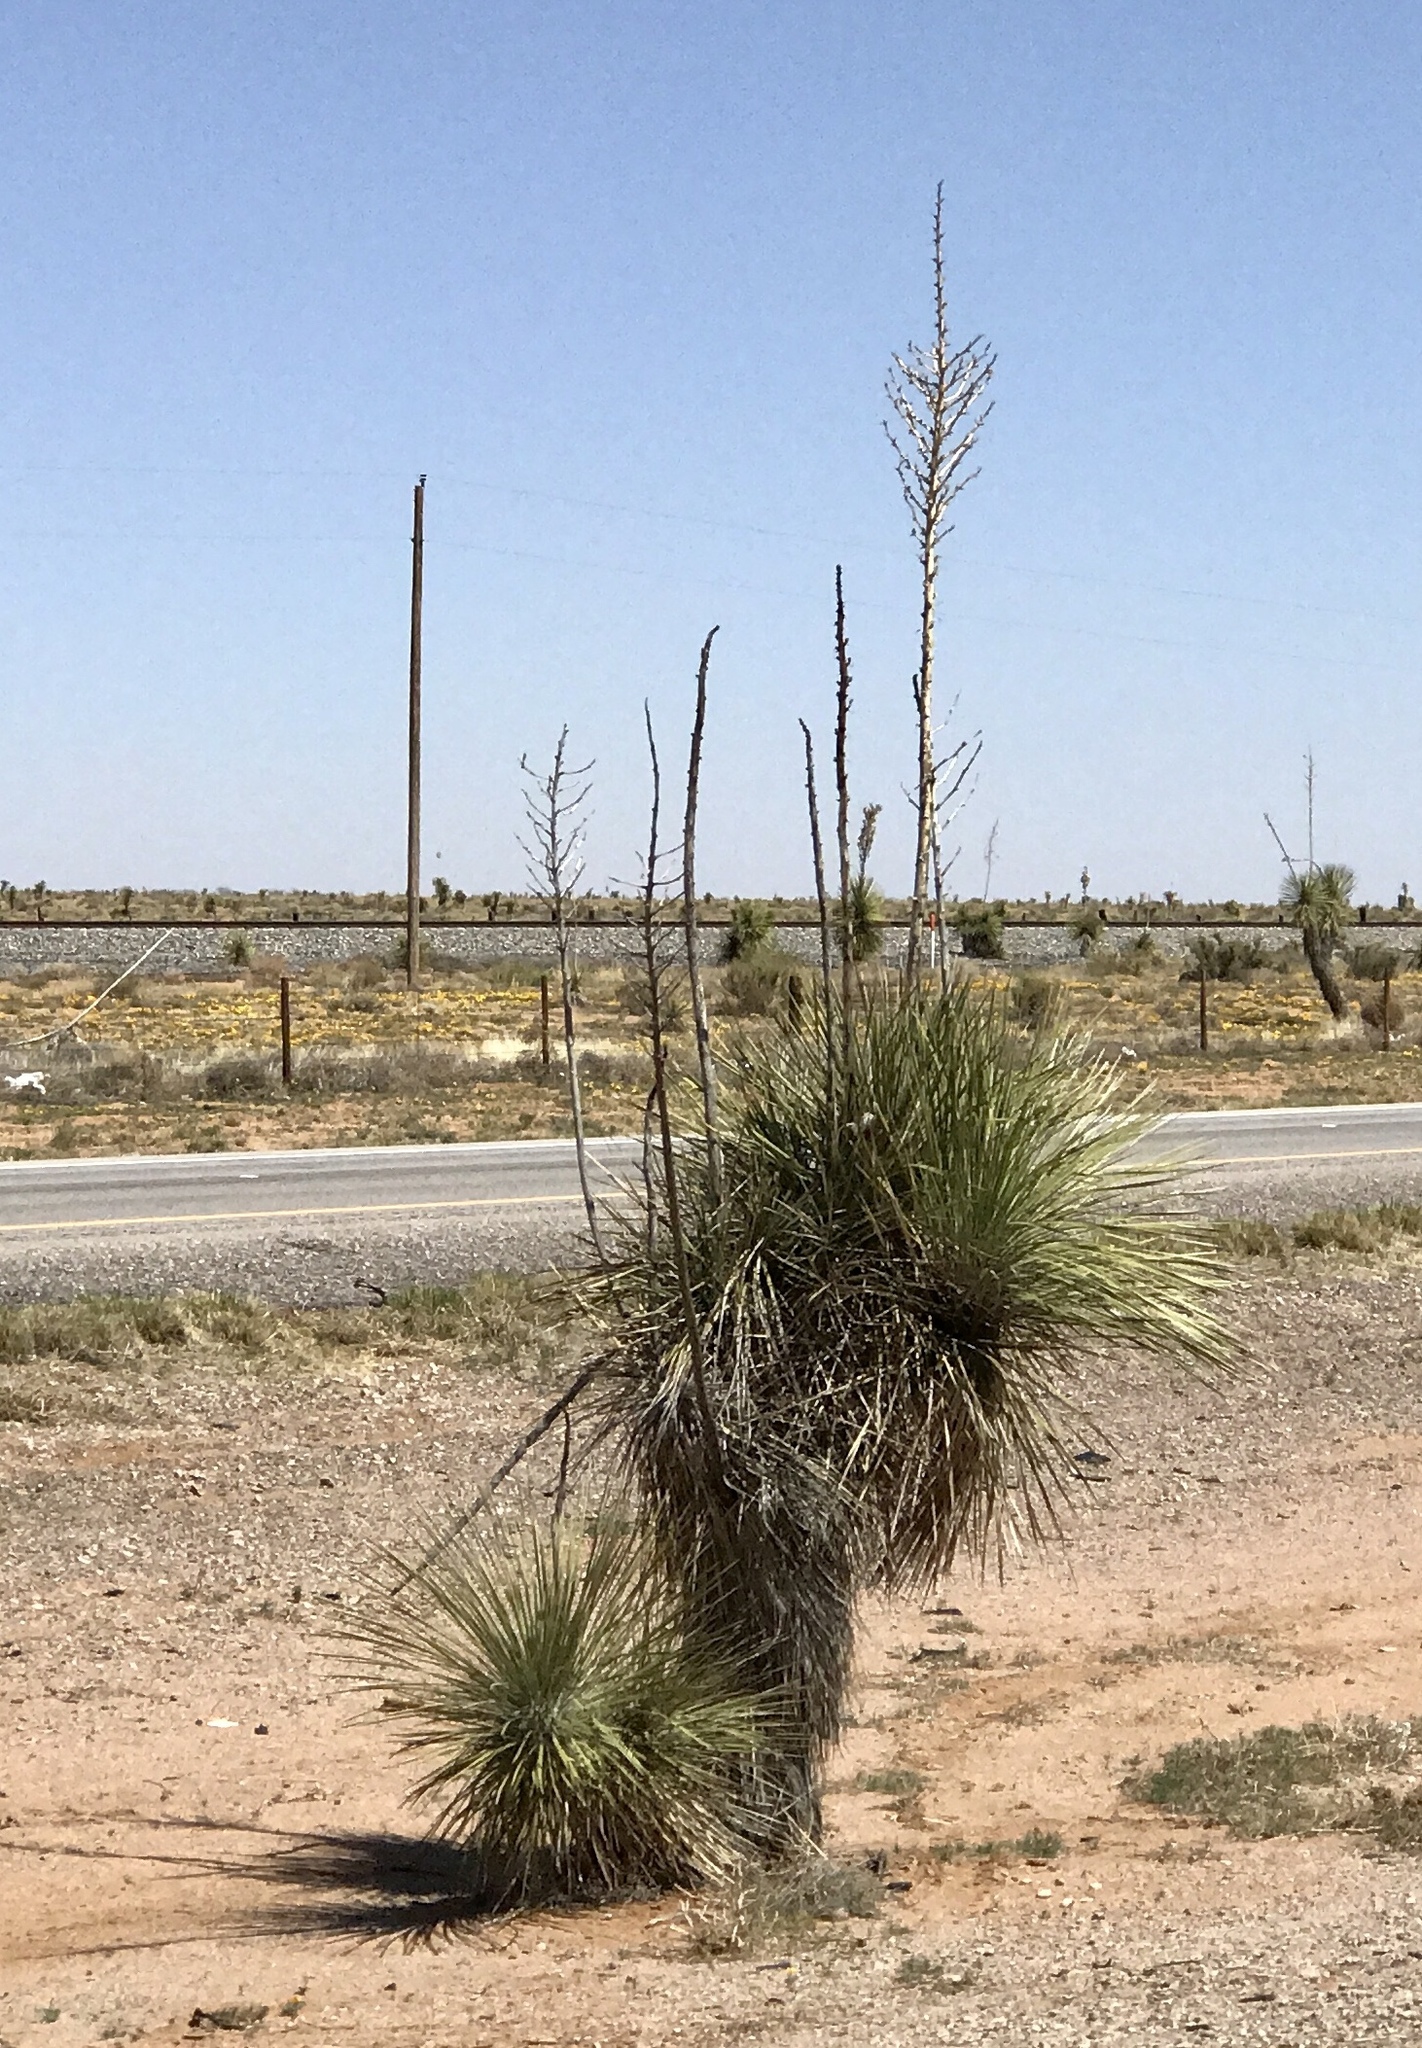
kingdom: Plantae
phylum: Tracheophyta
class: Liliopsida
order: Asparagales
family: Asparagaceae
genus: Yucca
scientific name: Yucca elata
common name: Palmella
